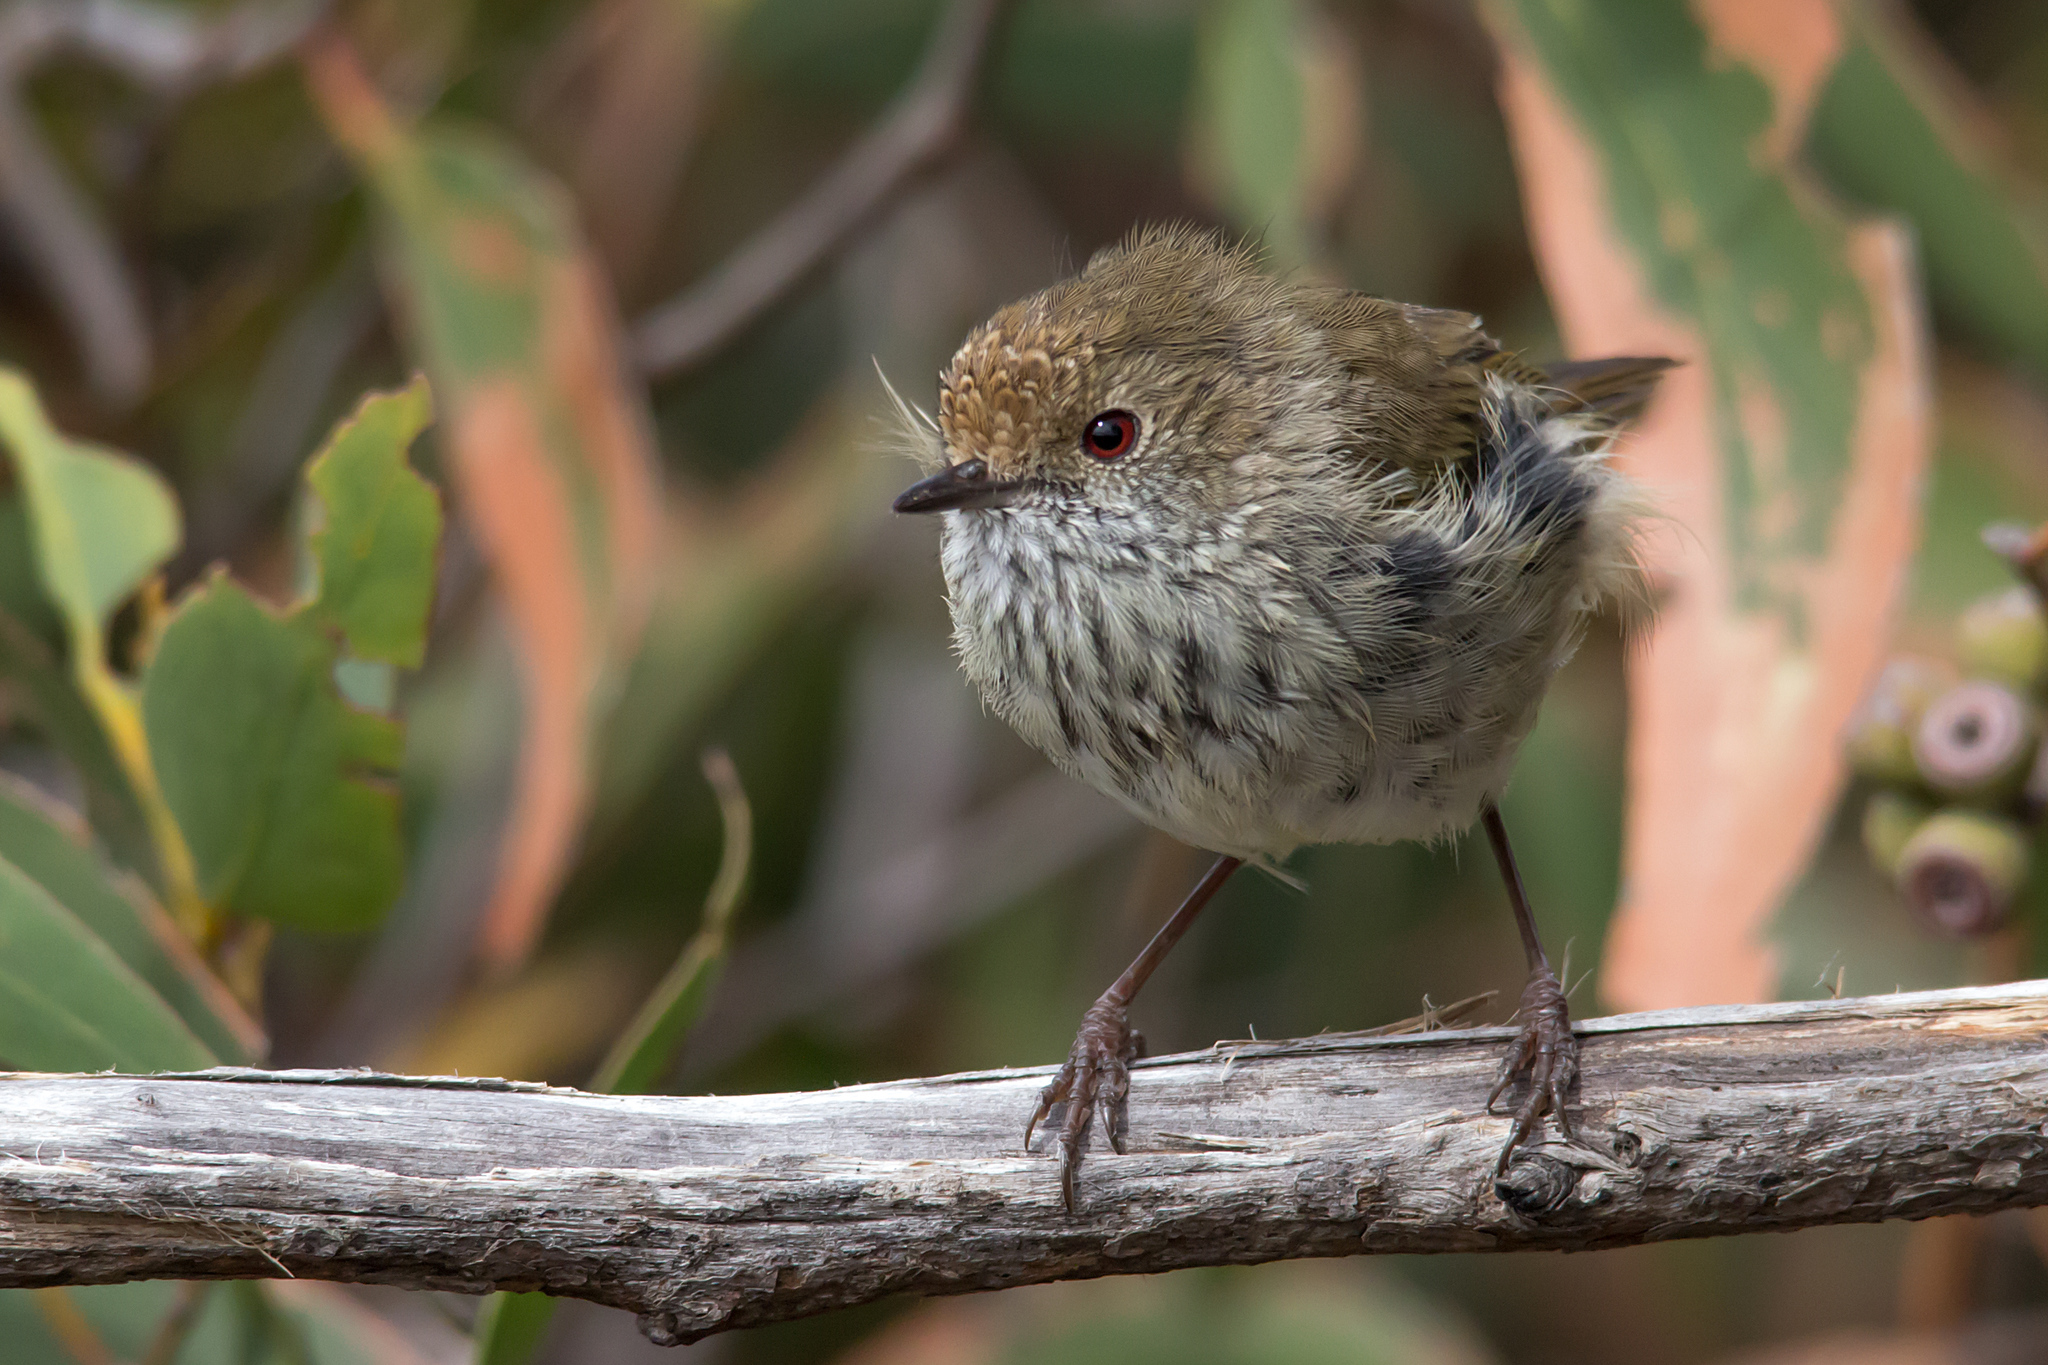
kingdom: Animalia
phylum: Chordata
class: Aves
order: Passeriformes
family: Acanthizidae
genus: Acanthiza
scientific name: Acanthiza pusilla
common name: Brown thornbill
